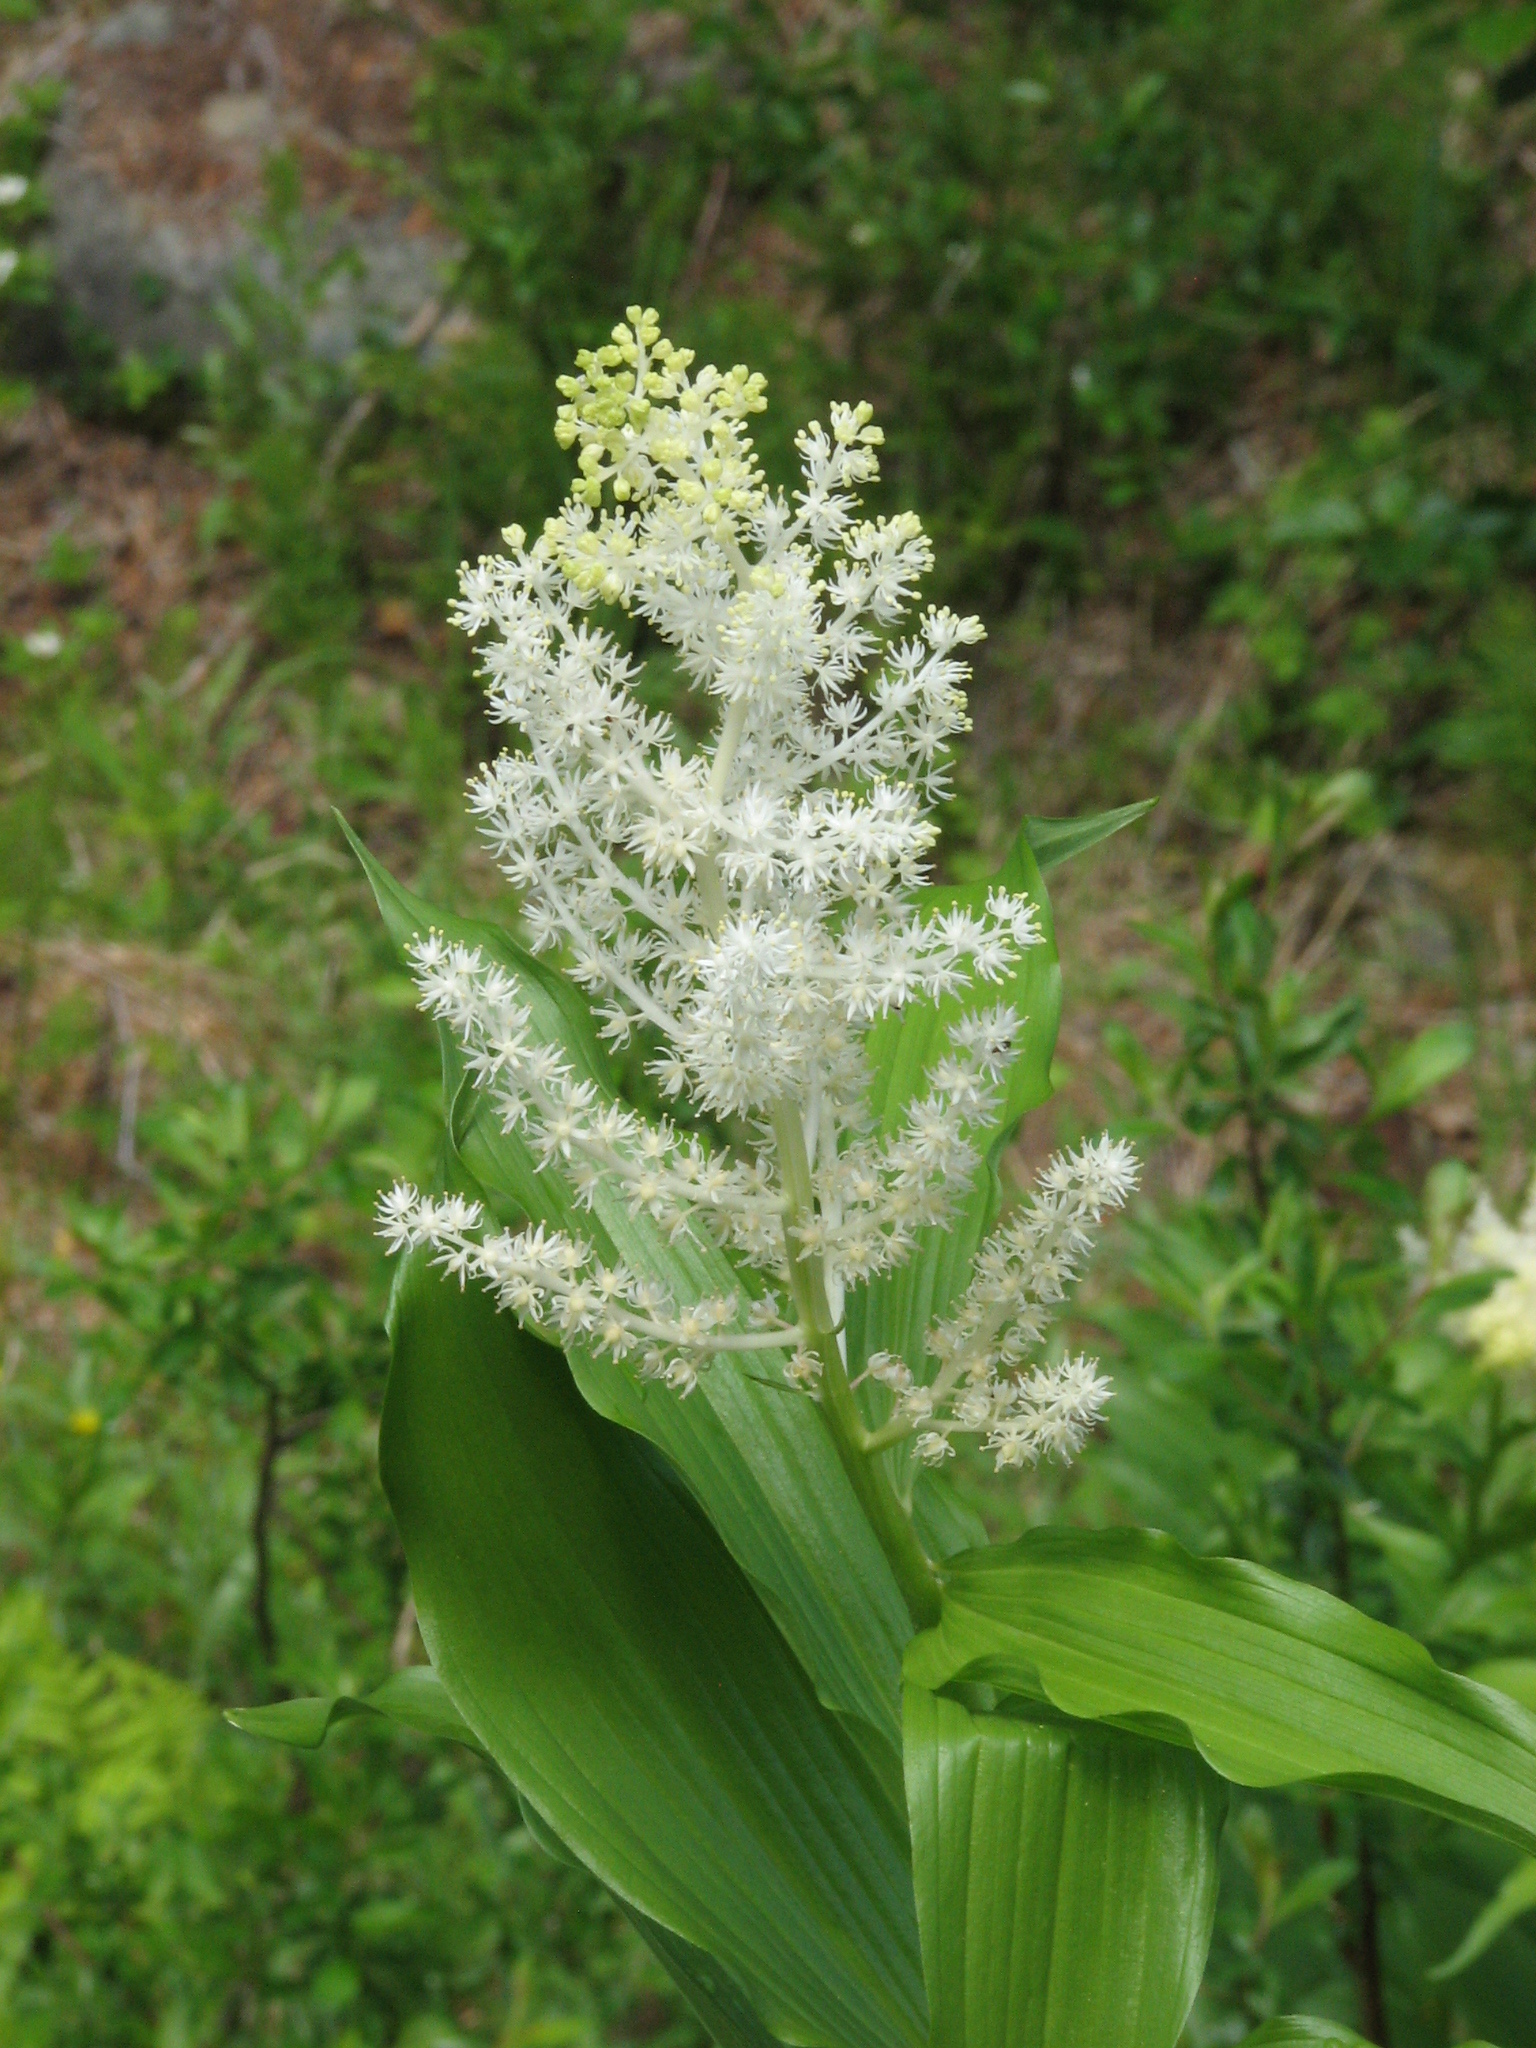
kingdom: Plantae
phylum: Tracheophyta
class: Liliopsida
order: Asparagales
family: Asparagaceae
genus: Maianthemum
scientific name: Maianthemum racemosum
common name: False spikenard
